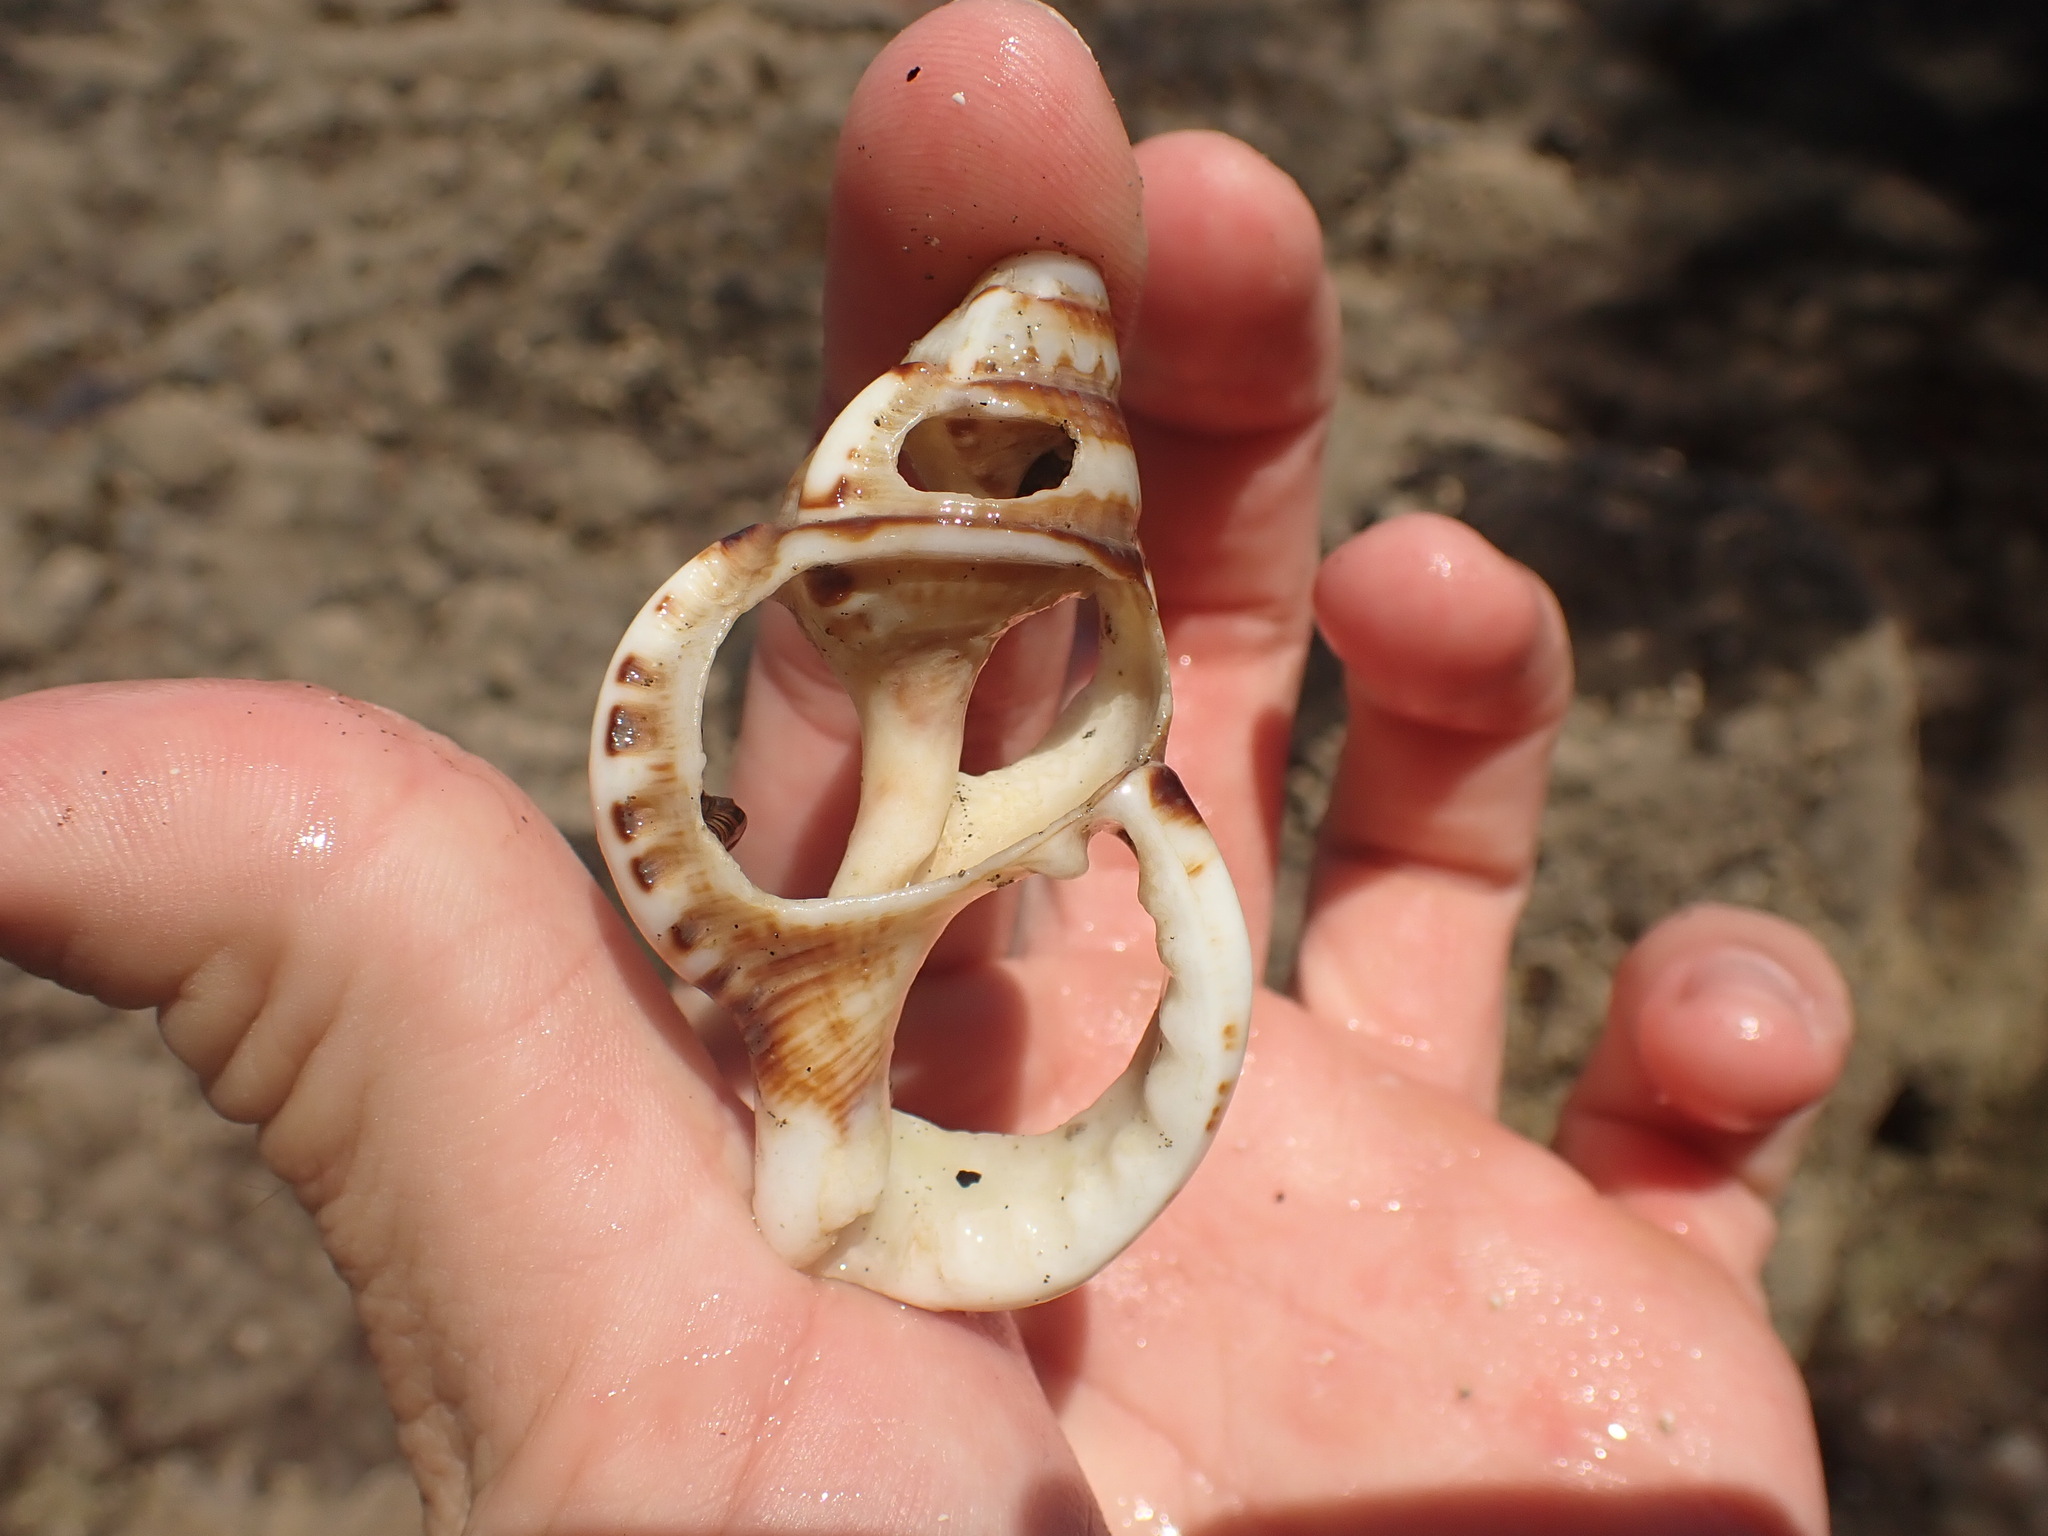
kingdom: Animalia
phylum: Mollusca
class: Gastropoda
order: Littorinimorpha
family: Ranellidae
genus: Ranella
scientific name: Ranella australasia
